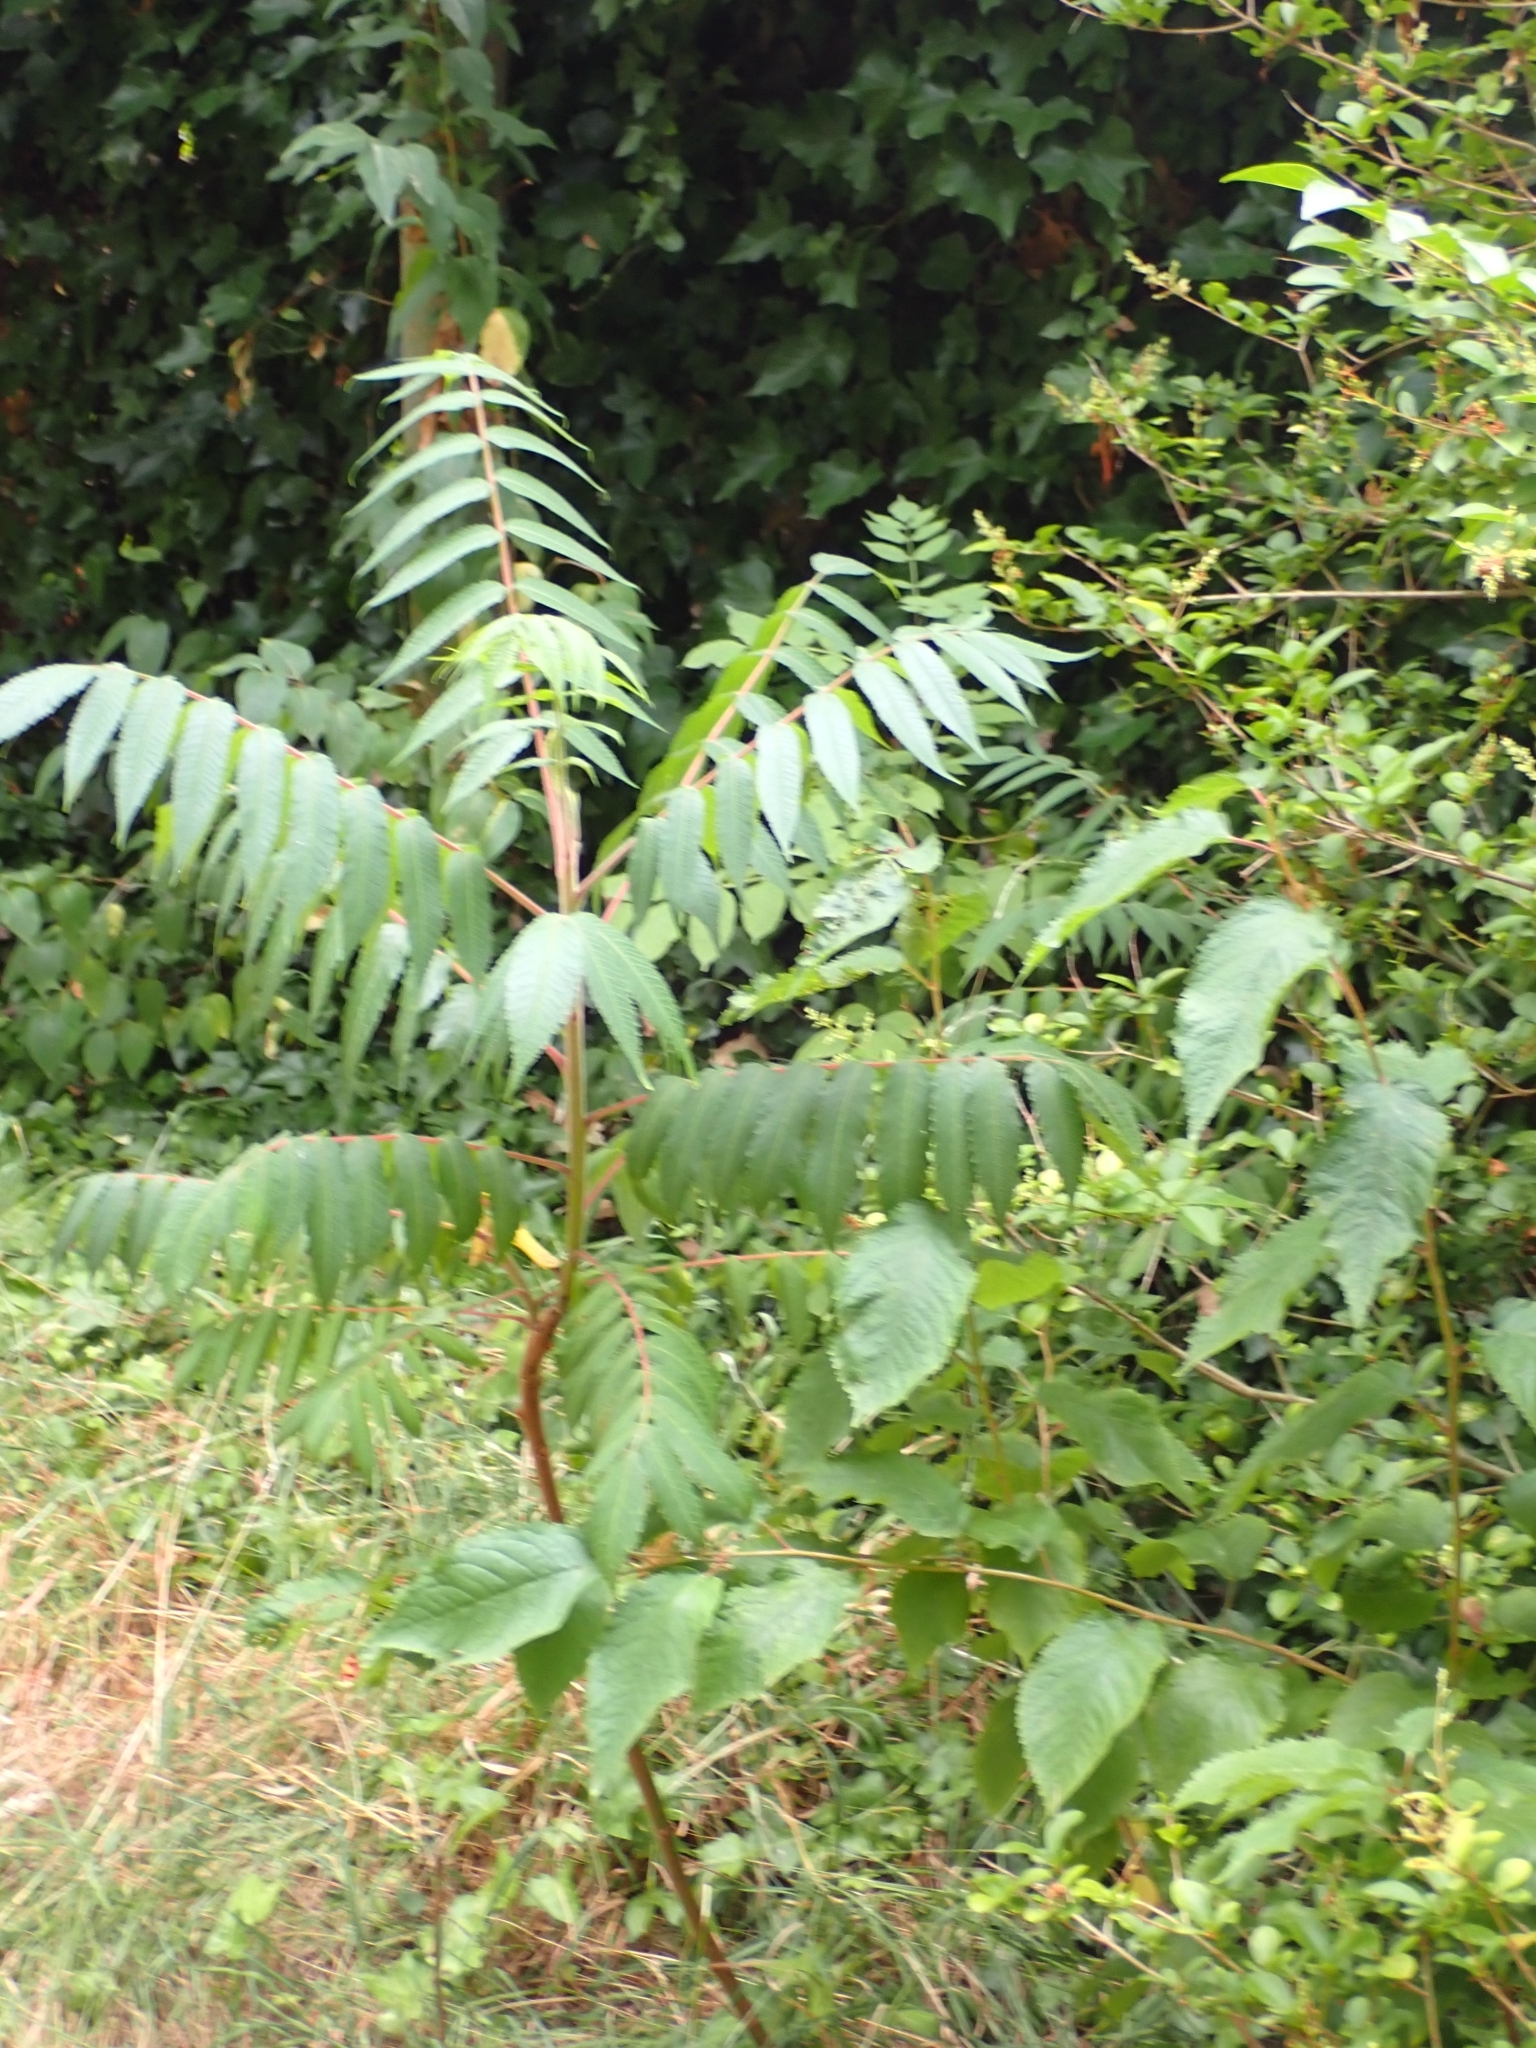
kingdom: Plantae
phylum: Tracheophyta
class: Magnoliopsida
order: Sapindales
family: Anacardiaceae
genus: Rhus
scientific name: Rhus typhina
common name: Staghorn sumac
